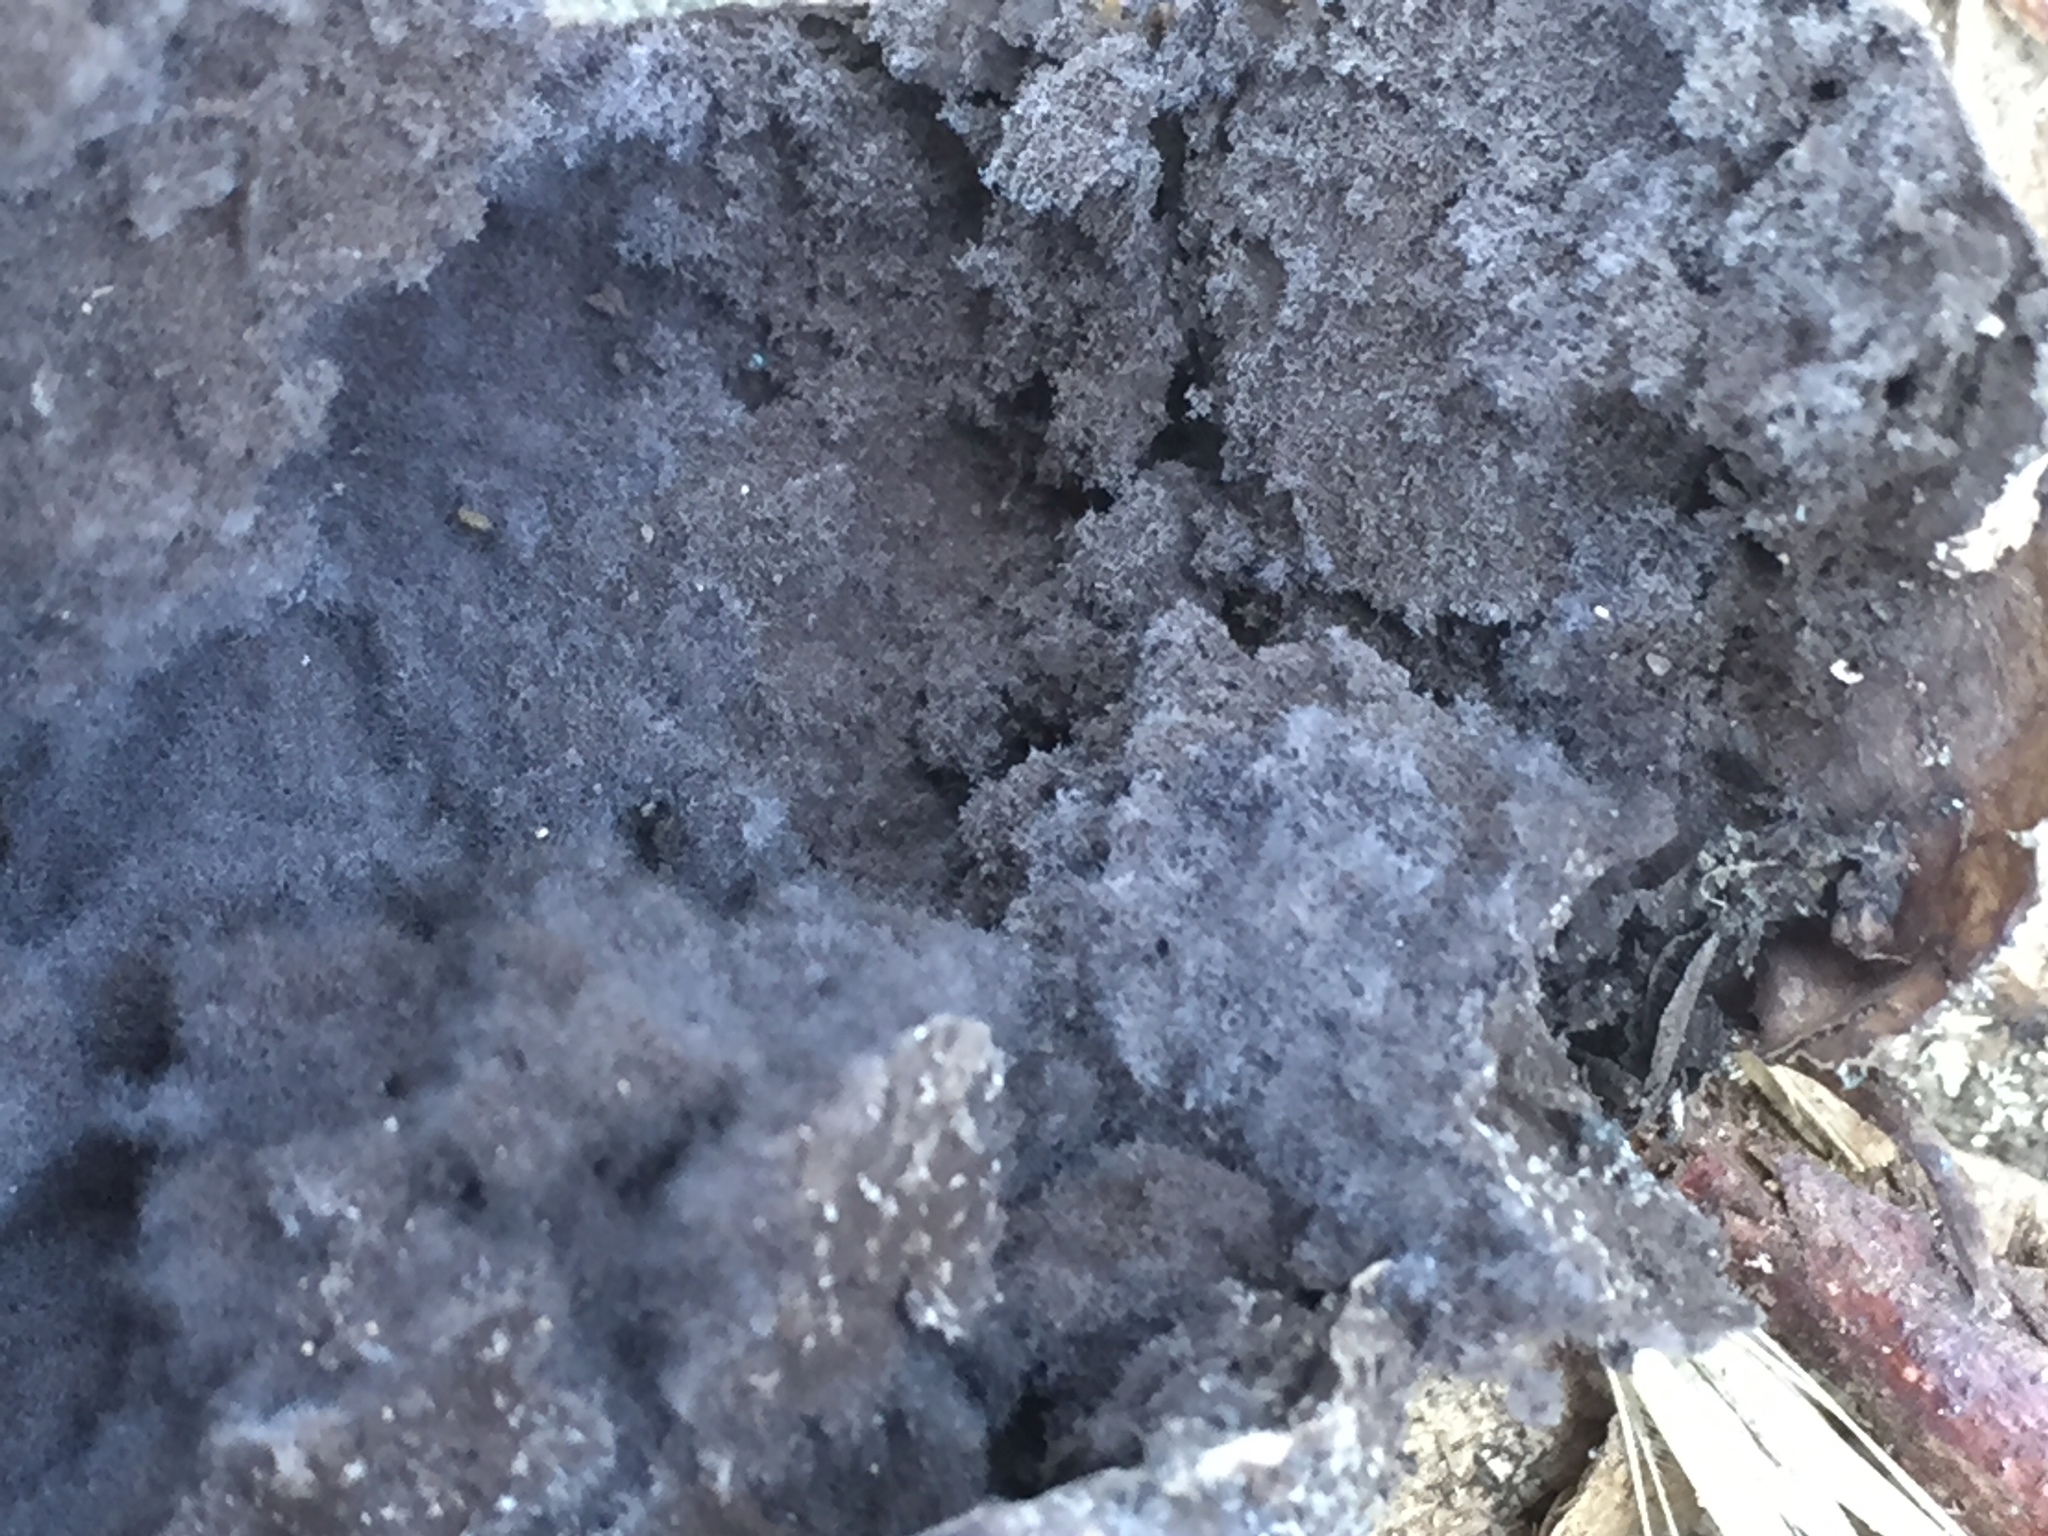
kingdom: Fungi
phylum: Basidiomycota
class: Agaricomycetes
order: Agaricales
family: Lycoperdaceae
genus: Bovista
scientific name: Bovista plumbea
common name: Grey puffball
